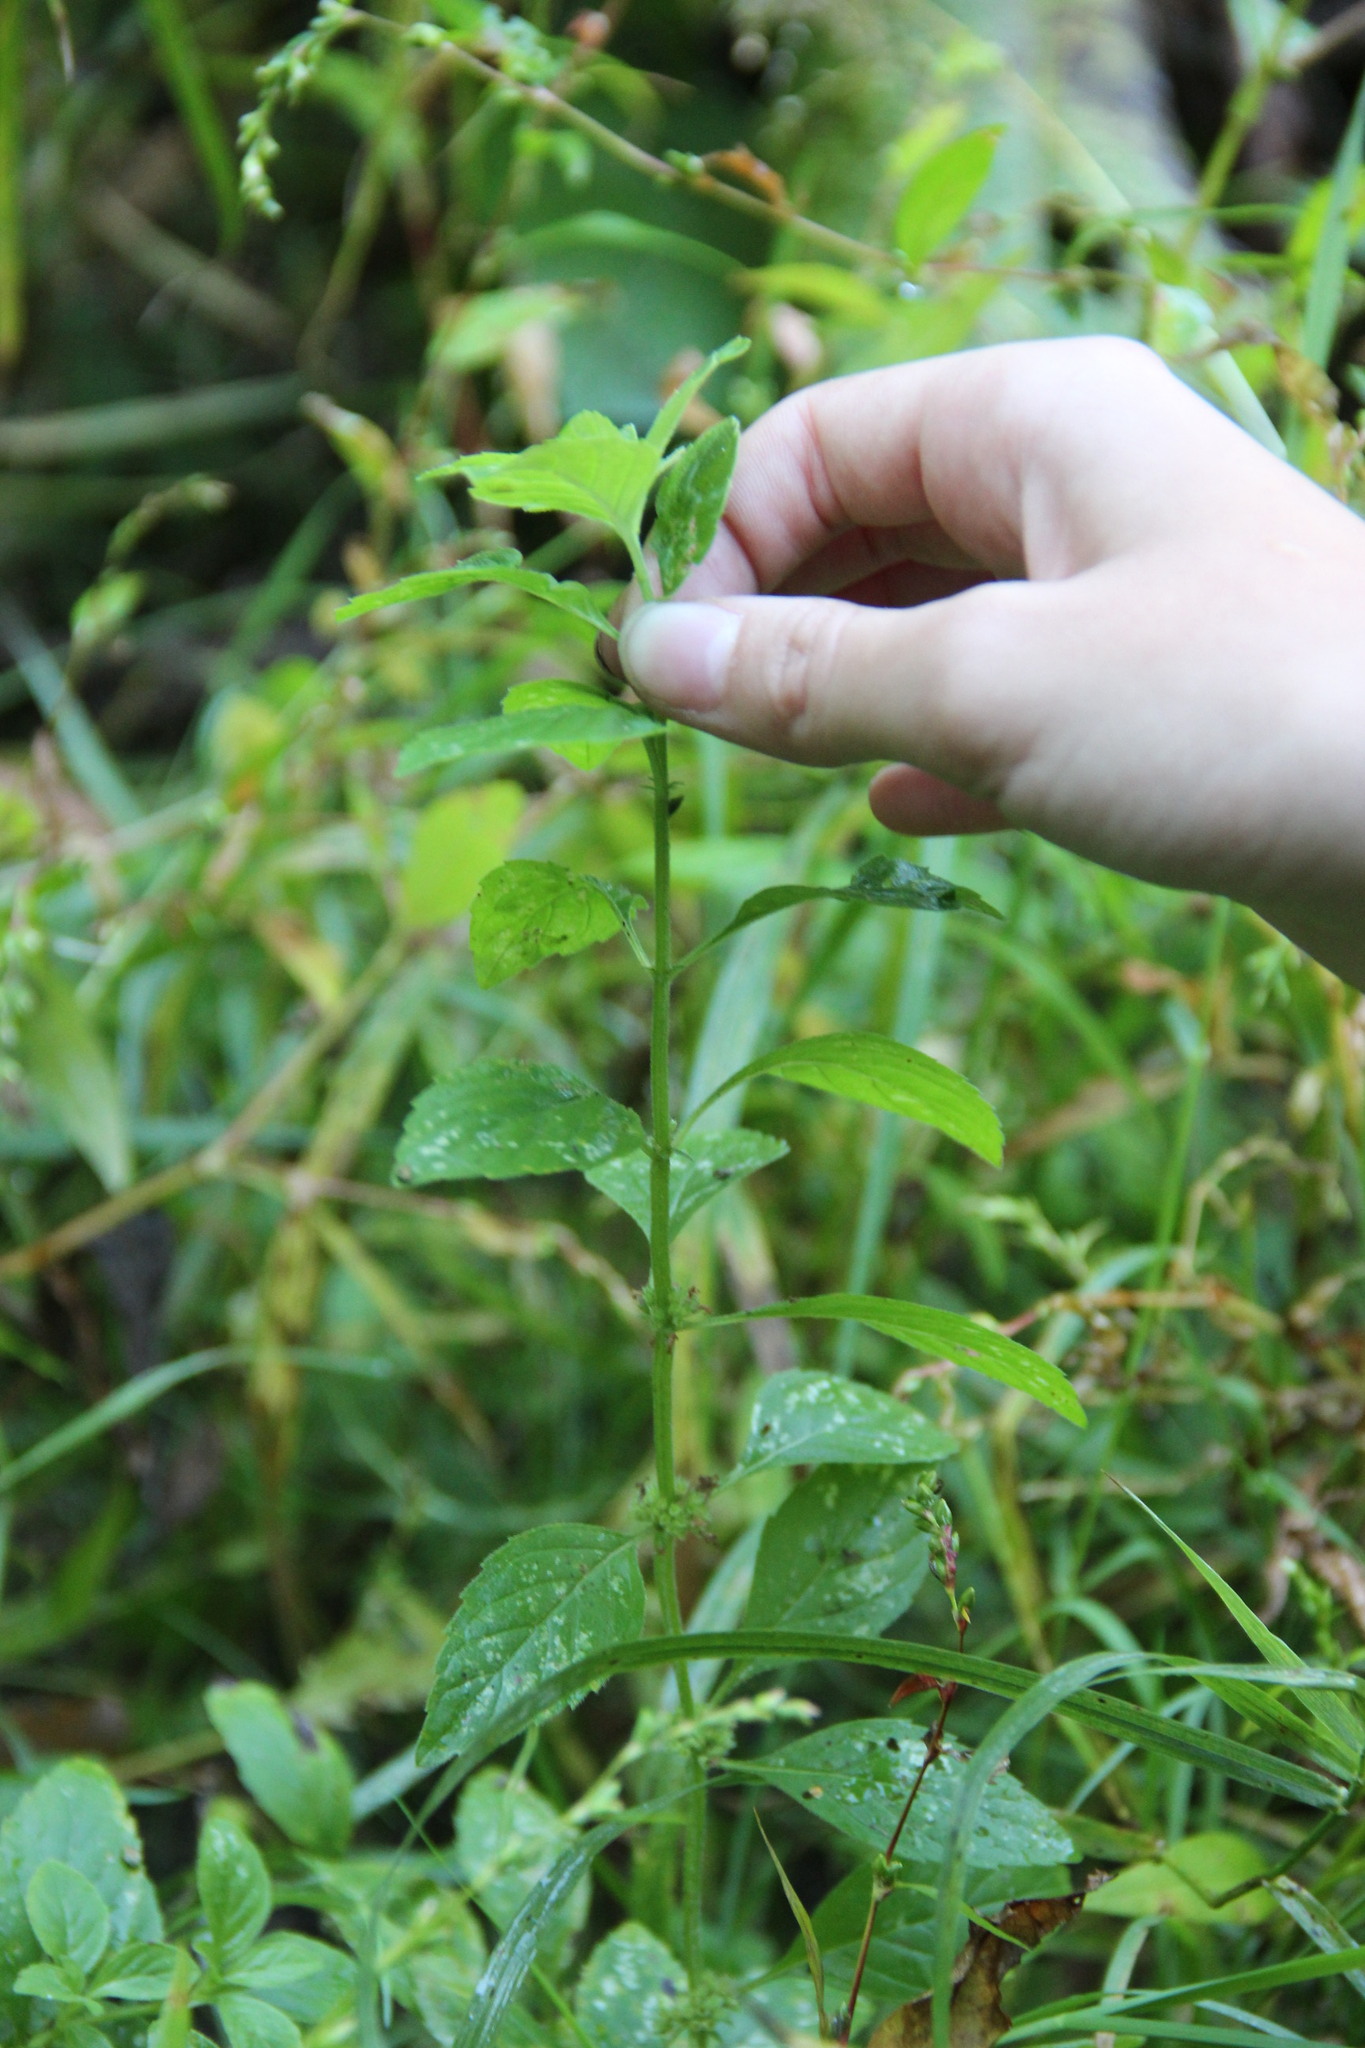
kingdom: Plantae
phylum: Tracheophyta
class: Magnoliopsida
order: Lamiales
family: Lamiaceae
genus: Mentha
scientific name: Mentha arvensis
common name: Corn mint
